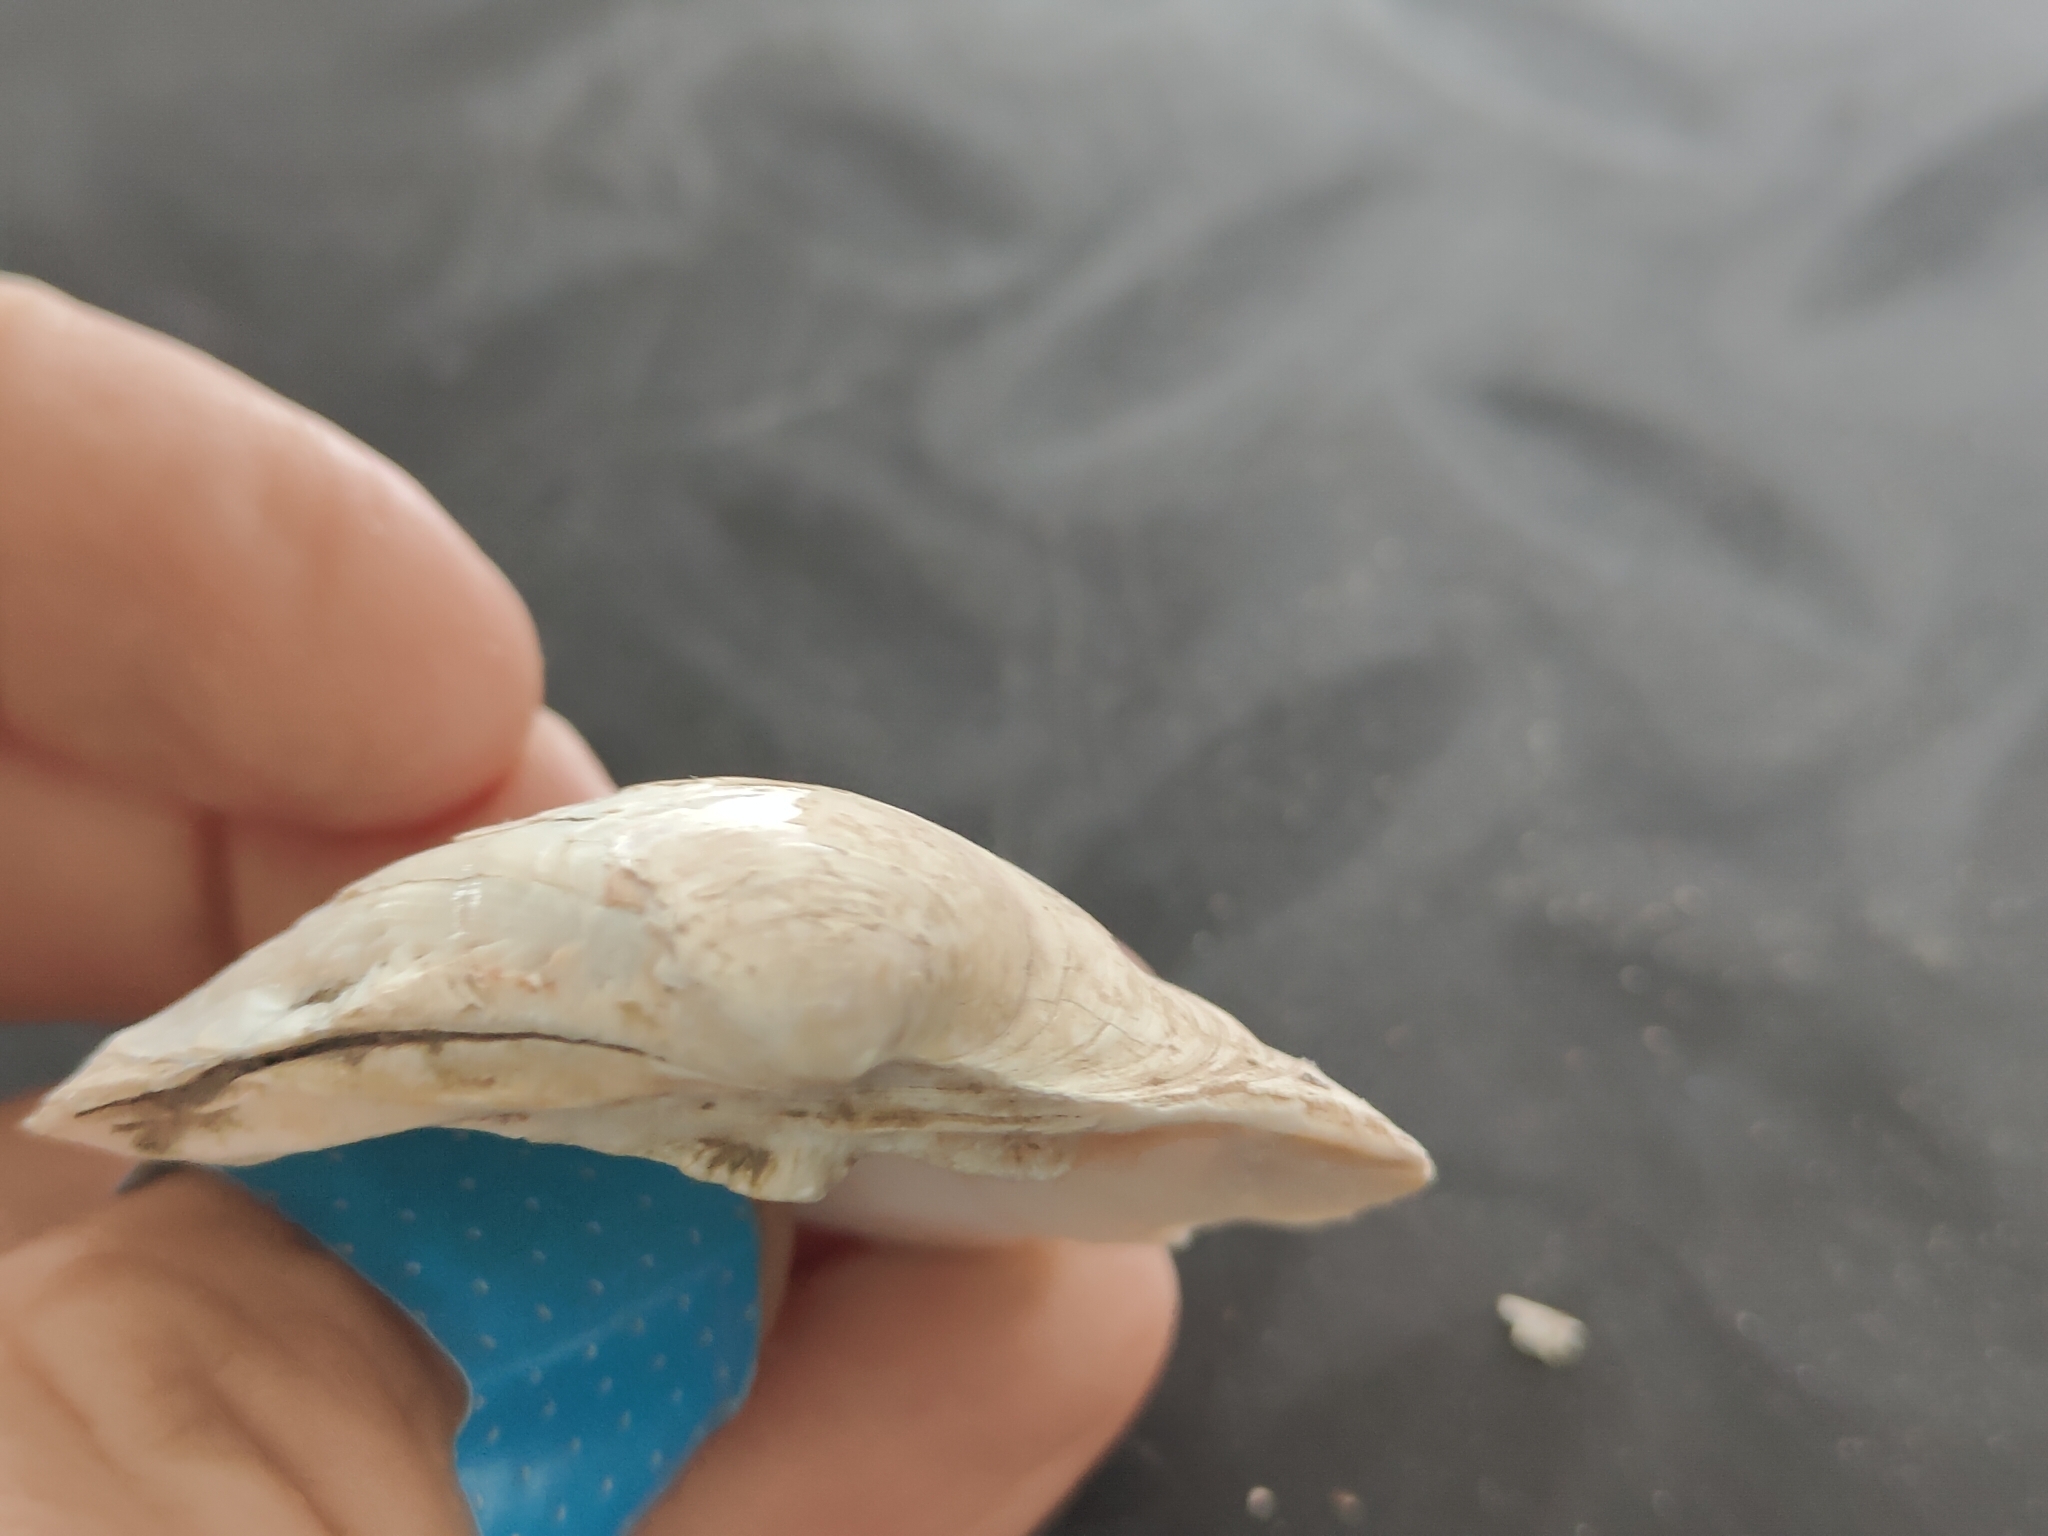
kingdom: Animalia
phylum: Mollusca
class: Bivalvia
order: Unionida
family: Unionidae
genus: Fusconaia
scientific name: Fusconaia flava
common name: Wabash pigtoe
